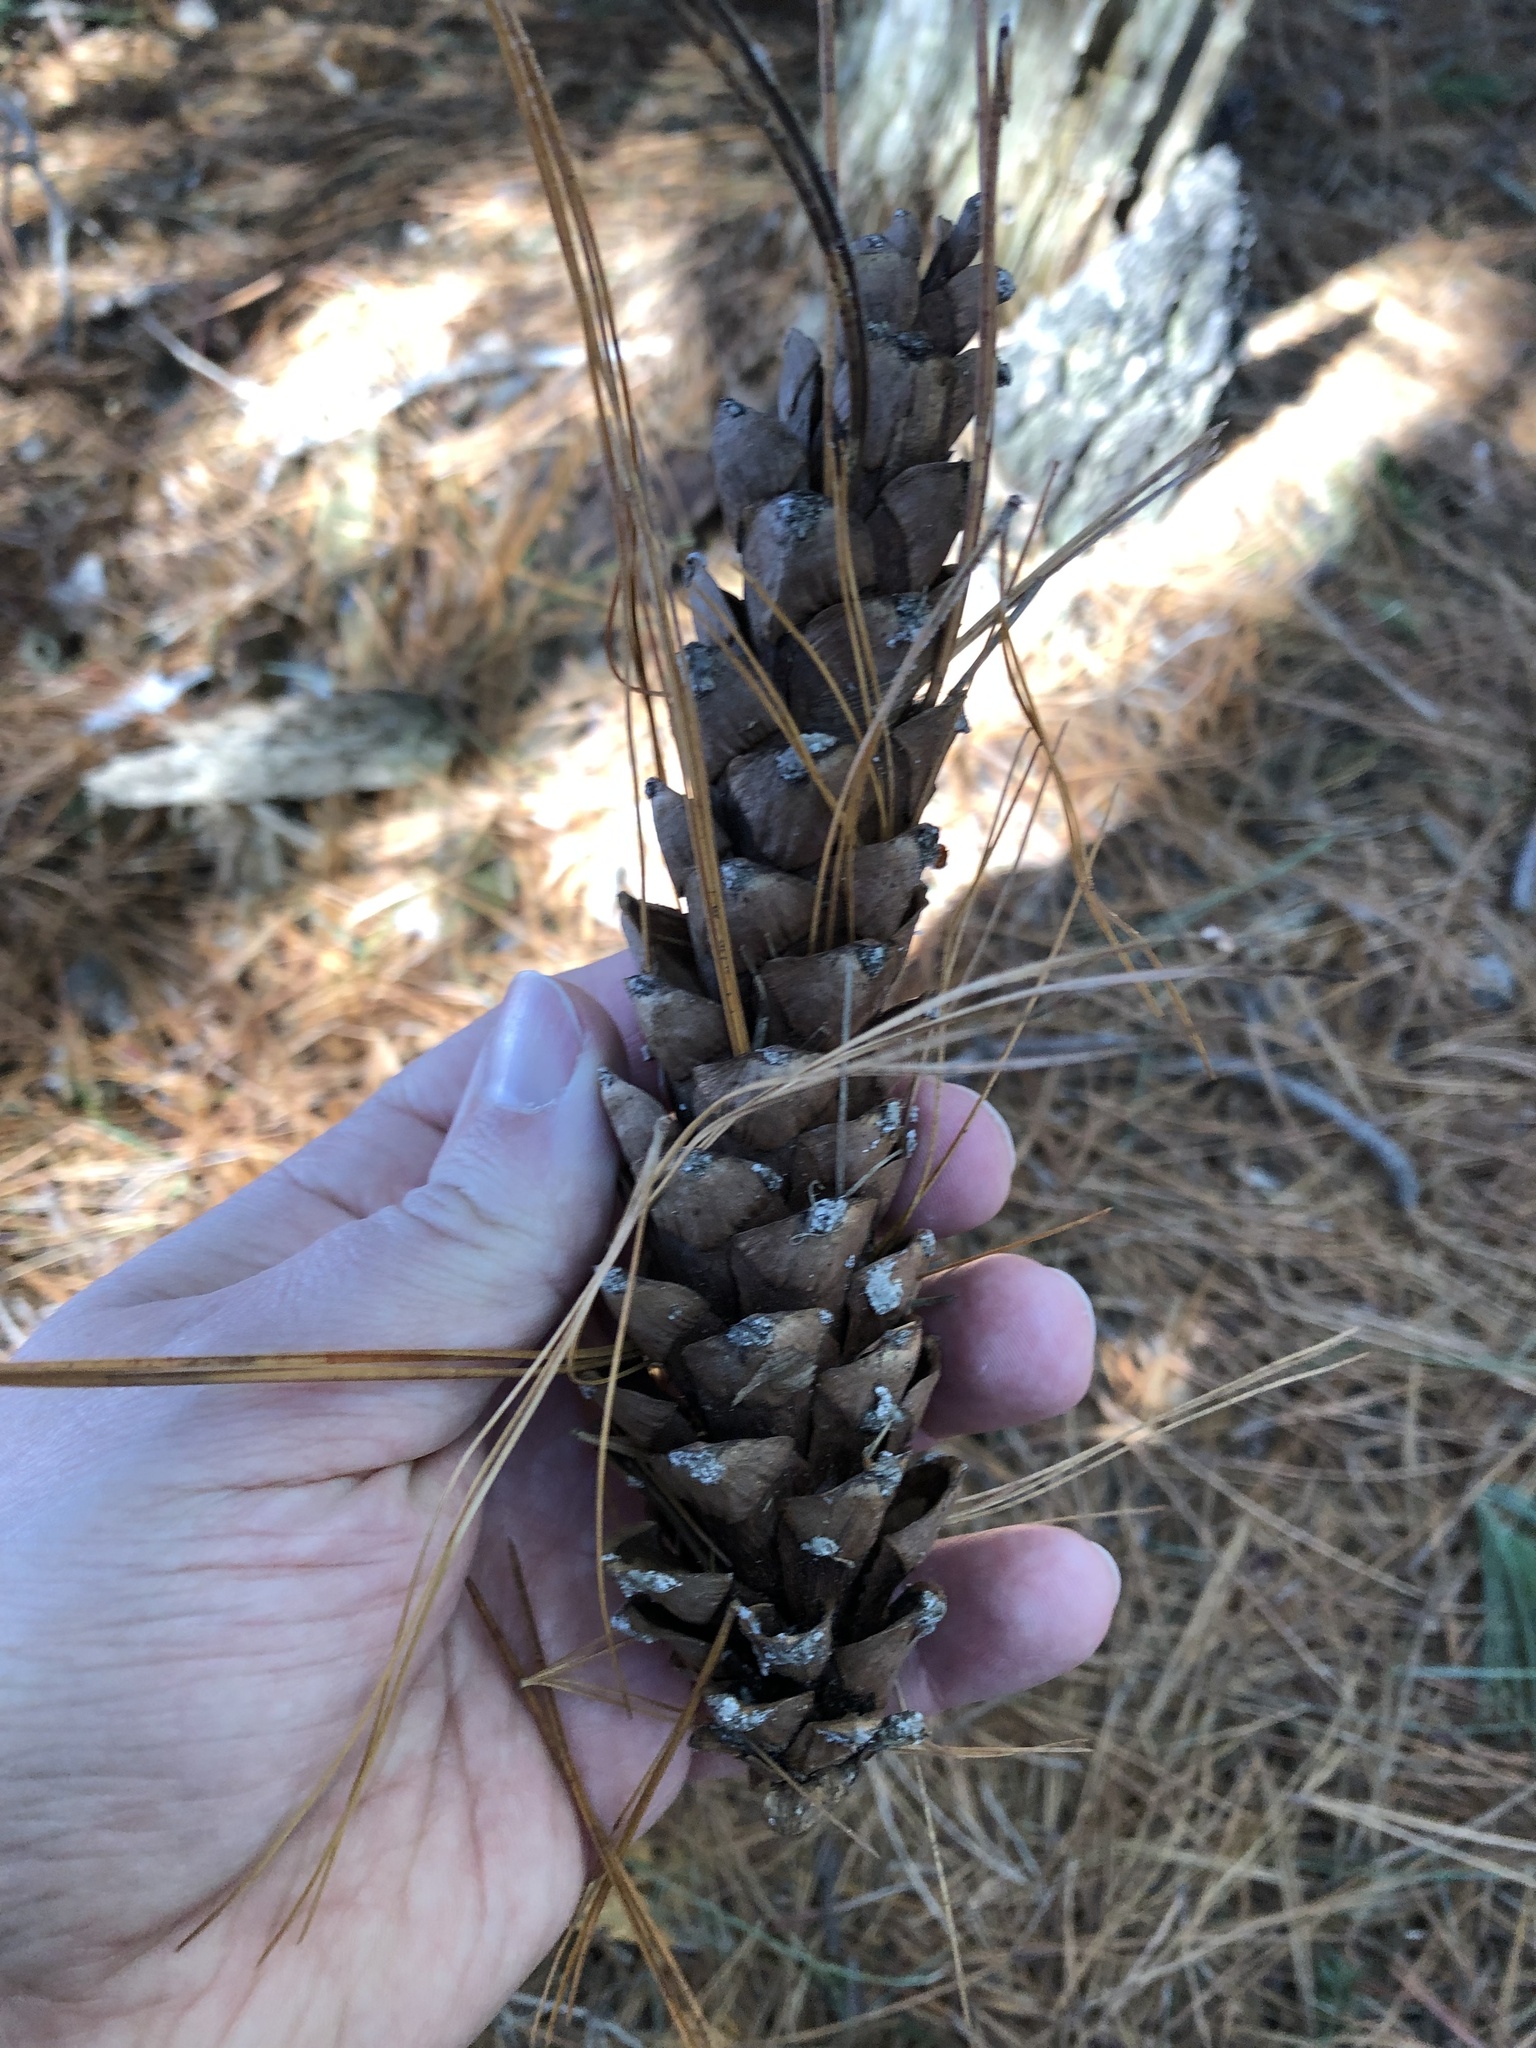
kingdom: Plantae
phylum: Tracheophyta
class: Pinopsida
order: Pinales
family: Pinaceae
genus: Pinus
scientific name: Pinus strobus
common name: Weymouth pine
